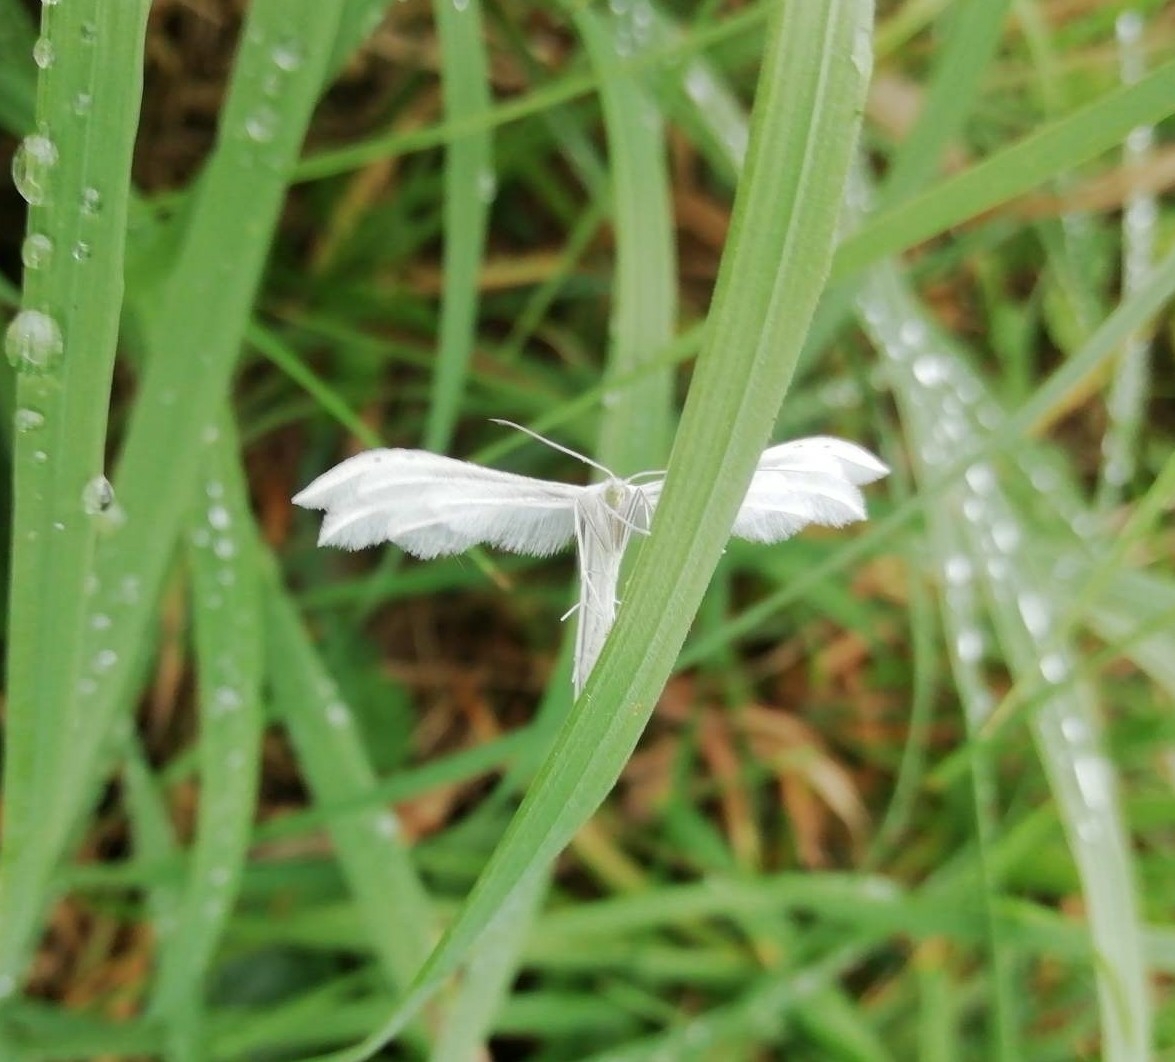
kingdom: Animalia
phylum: Arthropoda
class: Insecta
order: Lepidoptera
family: Pterophoridae
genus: Pterophorus
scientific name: Pterophorus pentadactyla
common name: White plume moth
